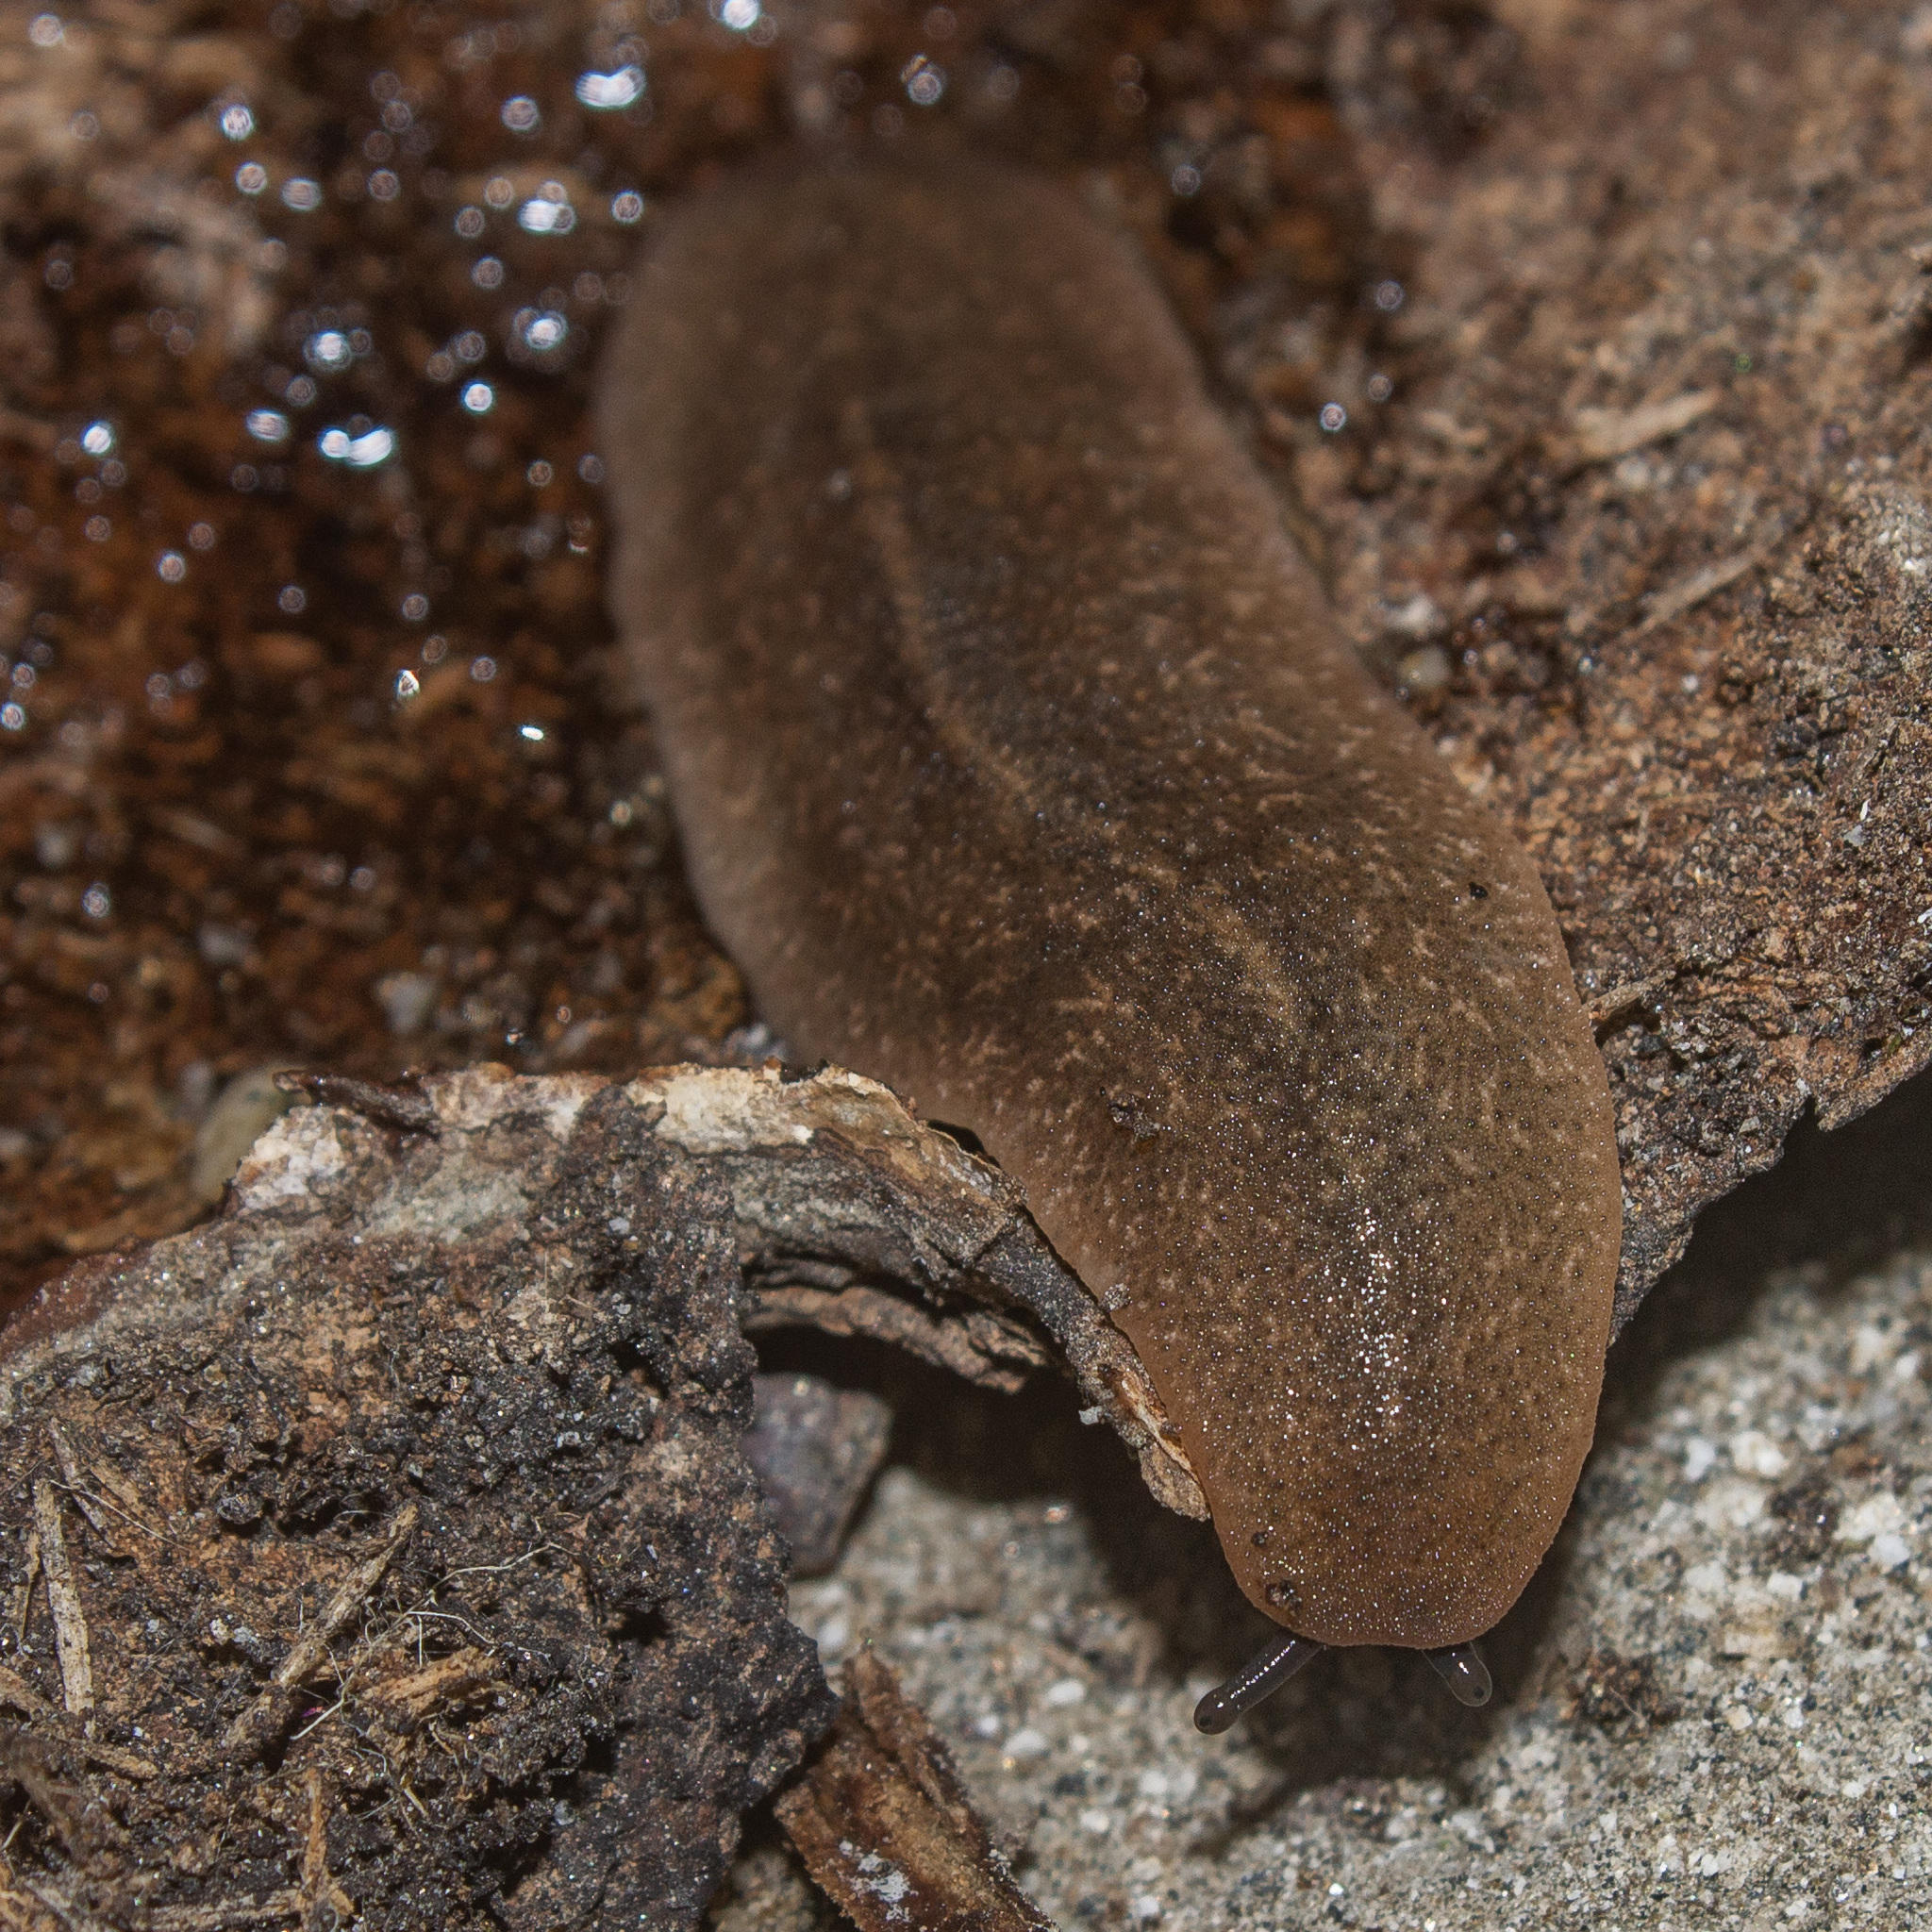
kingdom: Animalia
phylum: Mollusca
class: Gastropoda
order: Systellommatophora
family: Veronicellidae
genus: Diplosolenodes
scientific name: Diplosolenodes occidentalis
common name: Spotted leatherleaf
